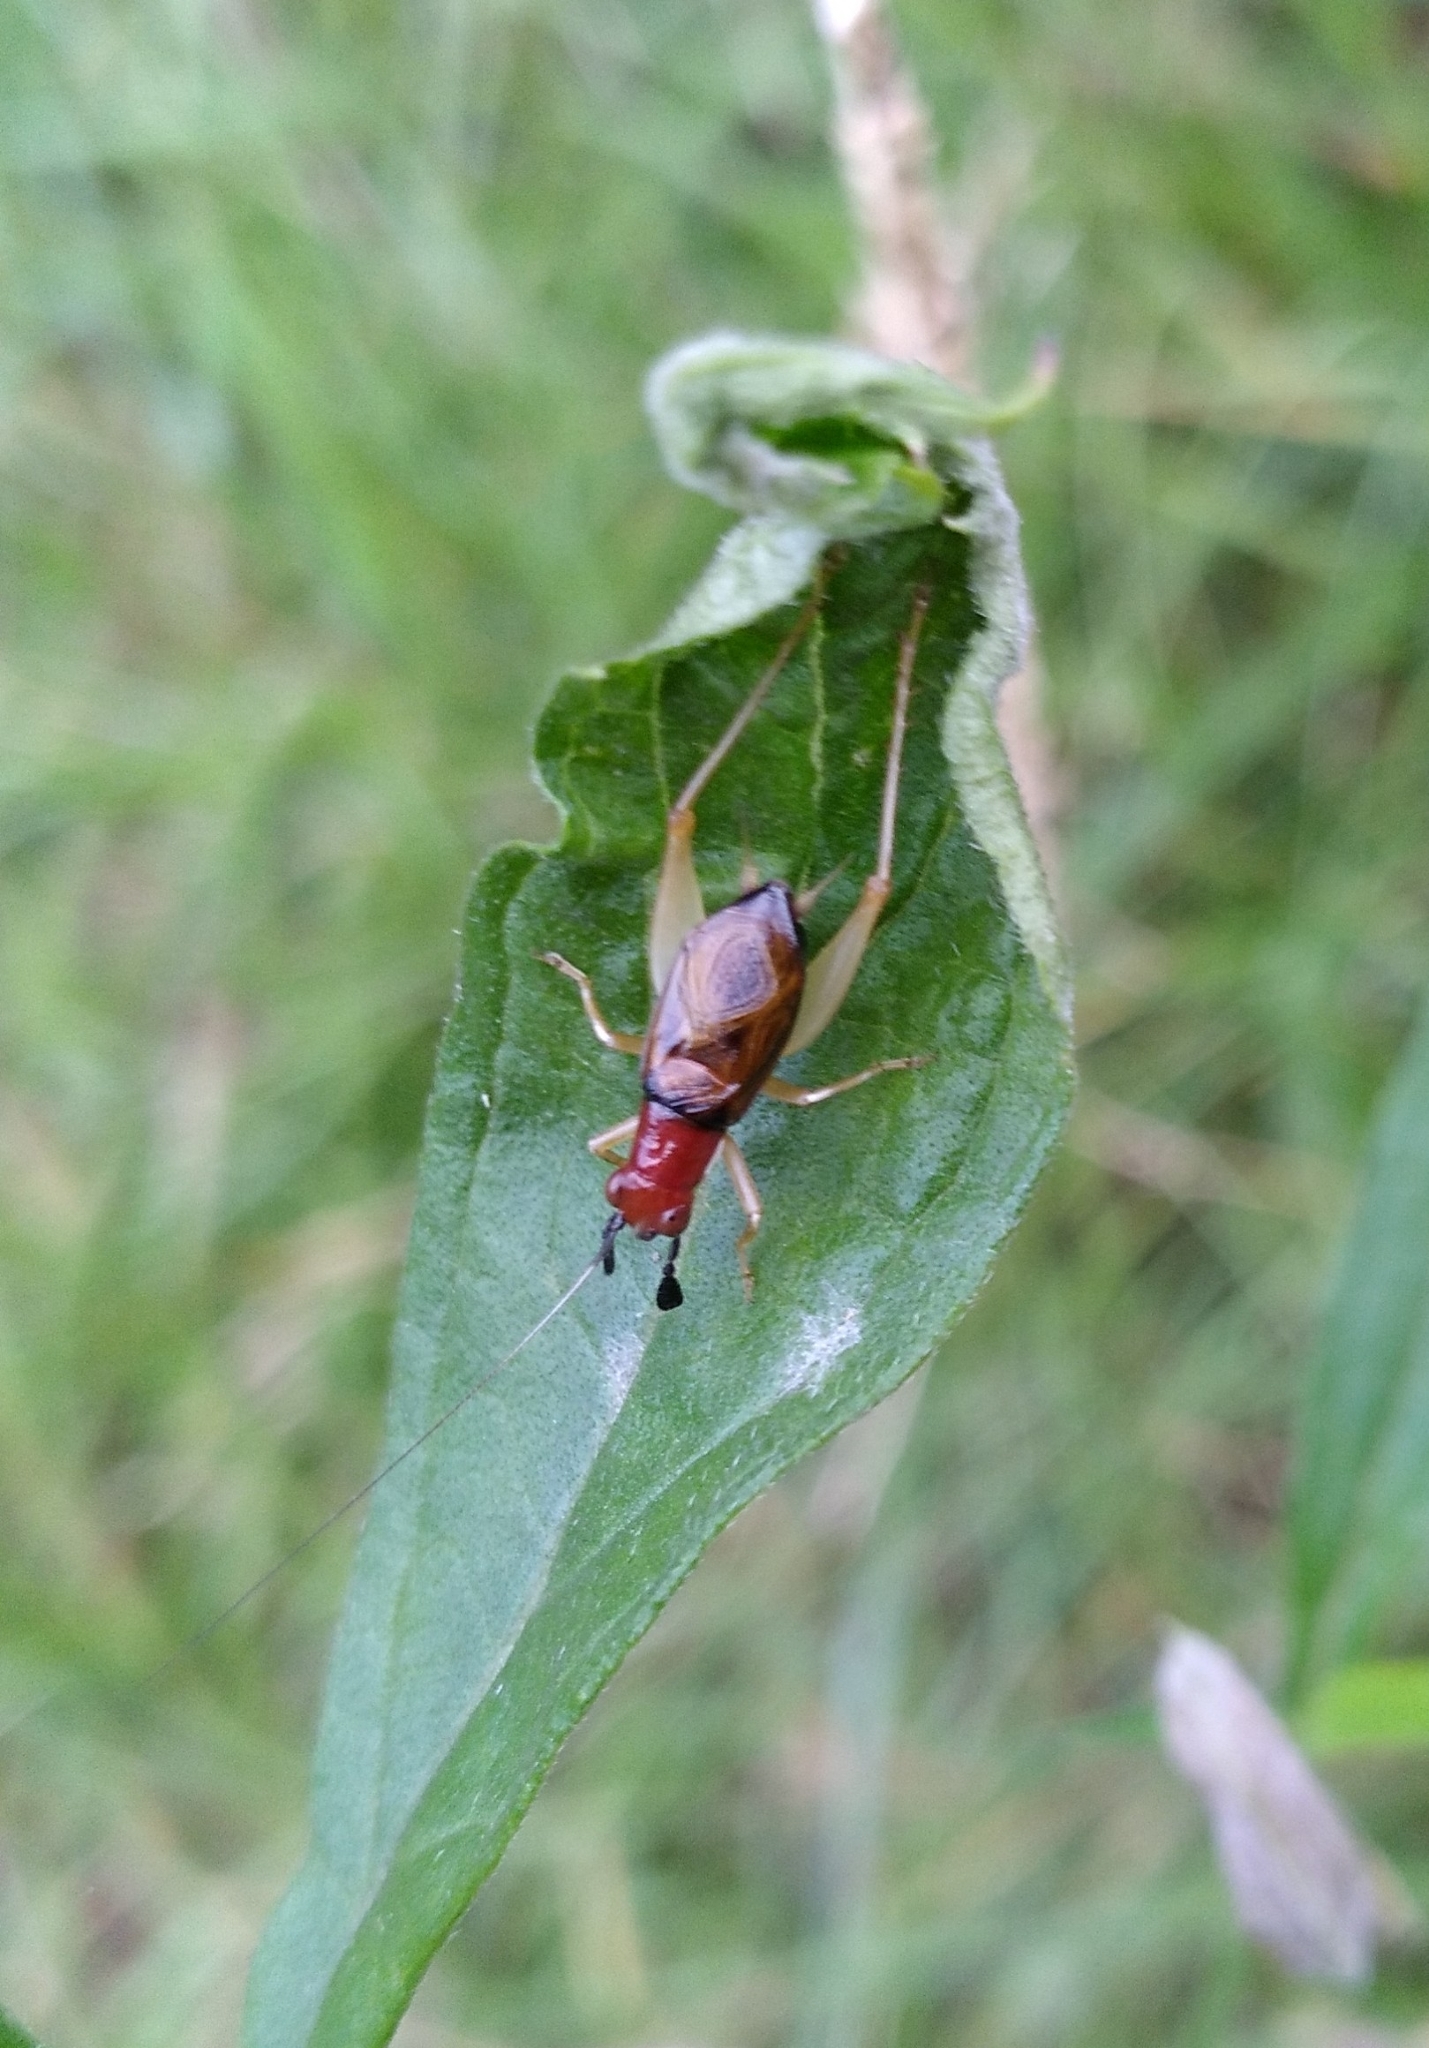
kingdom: Animalia
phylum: Arthropoda
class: Insecta
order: Orthoptera
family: Trigonidiidae
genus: Phyllopalpus
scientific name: Phyllopalpus pulchellus
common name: Handsome trig
